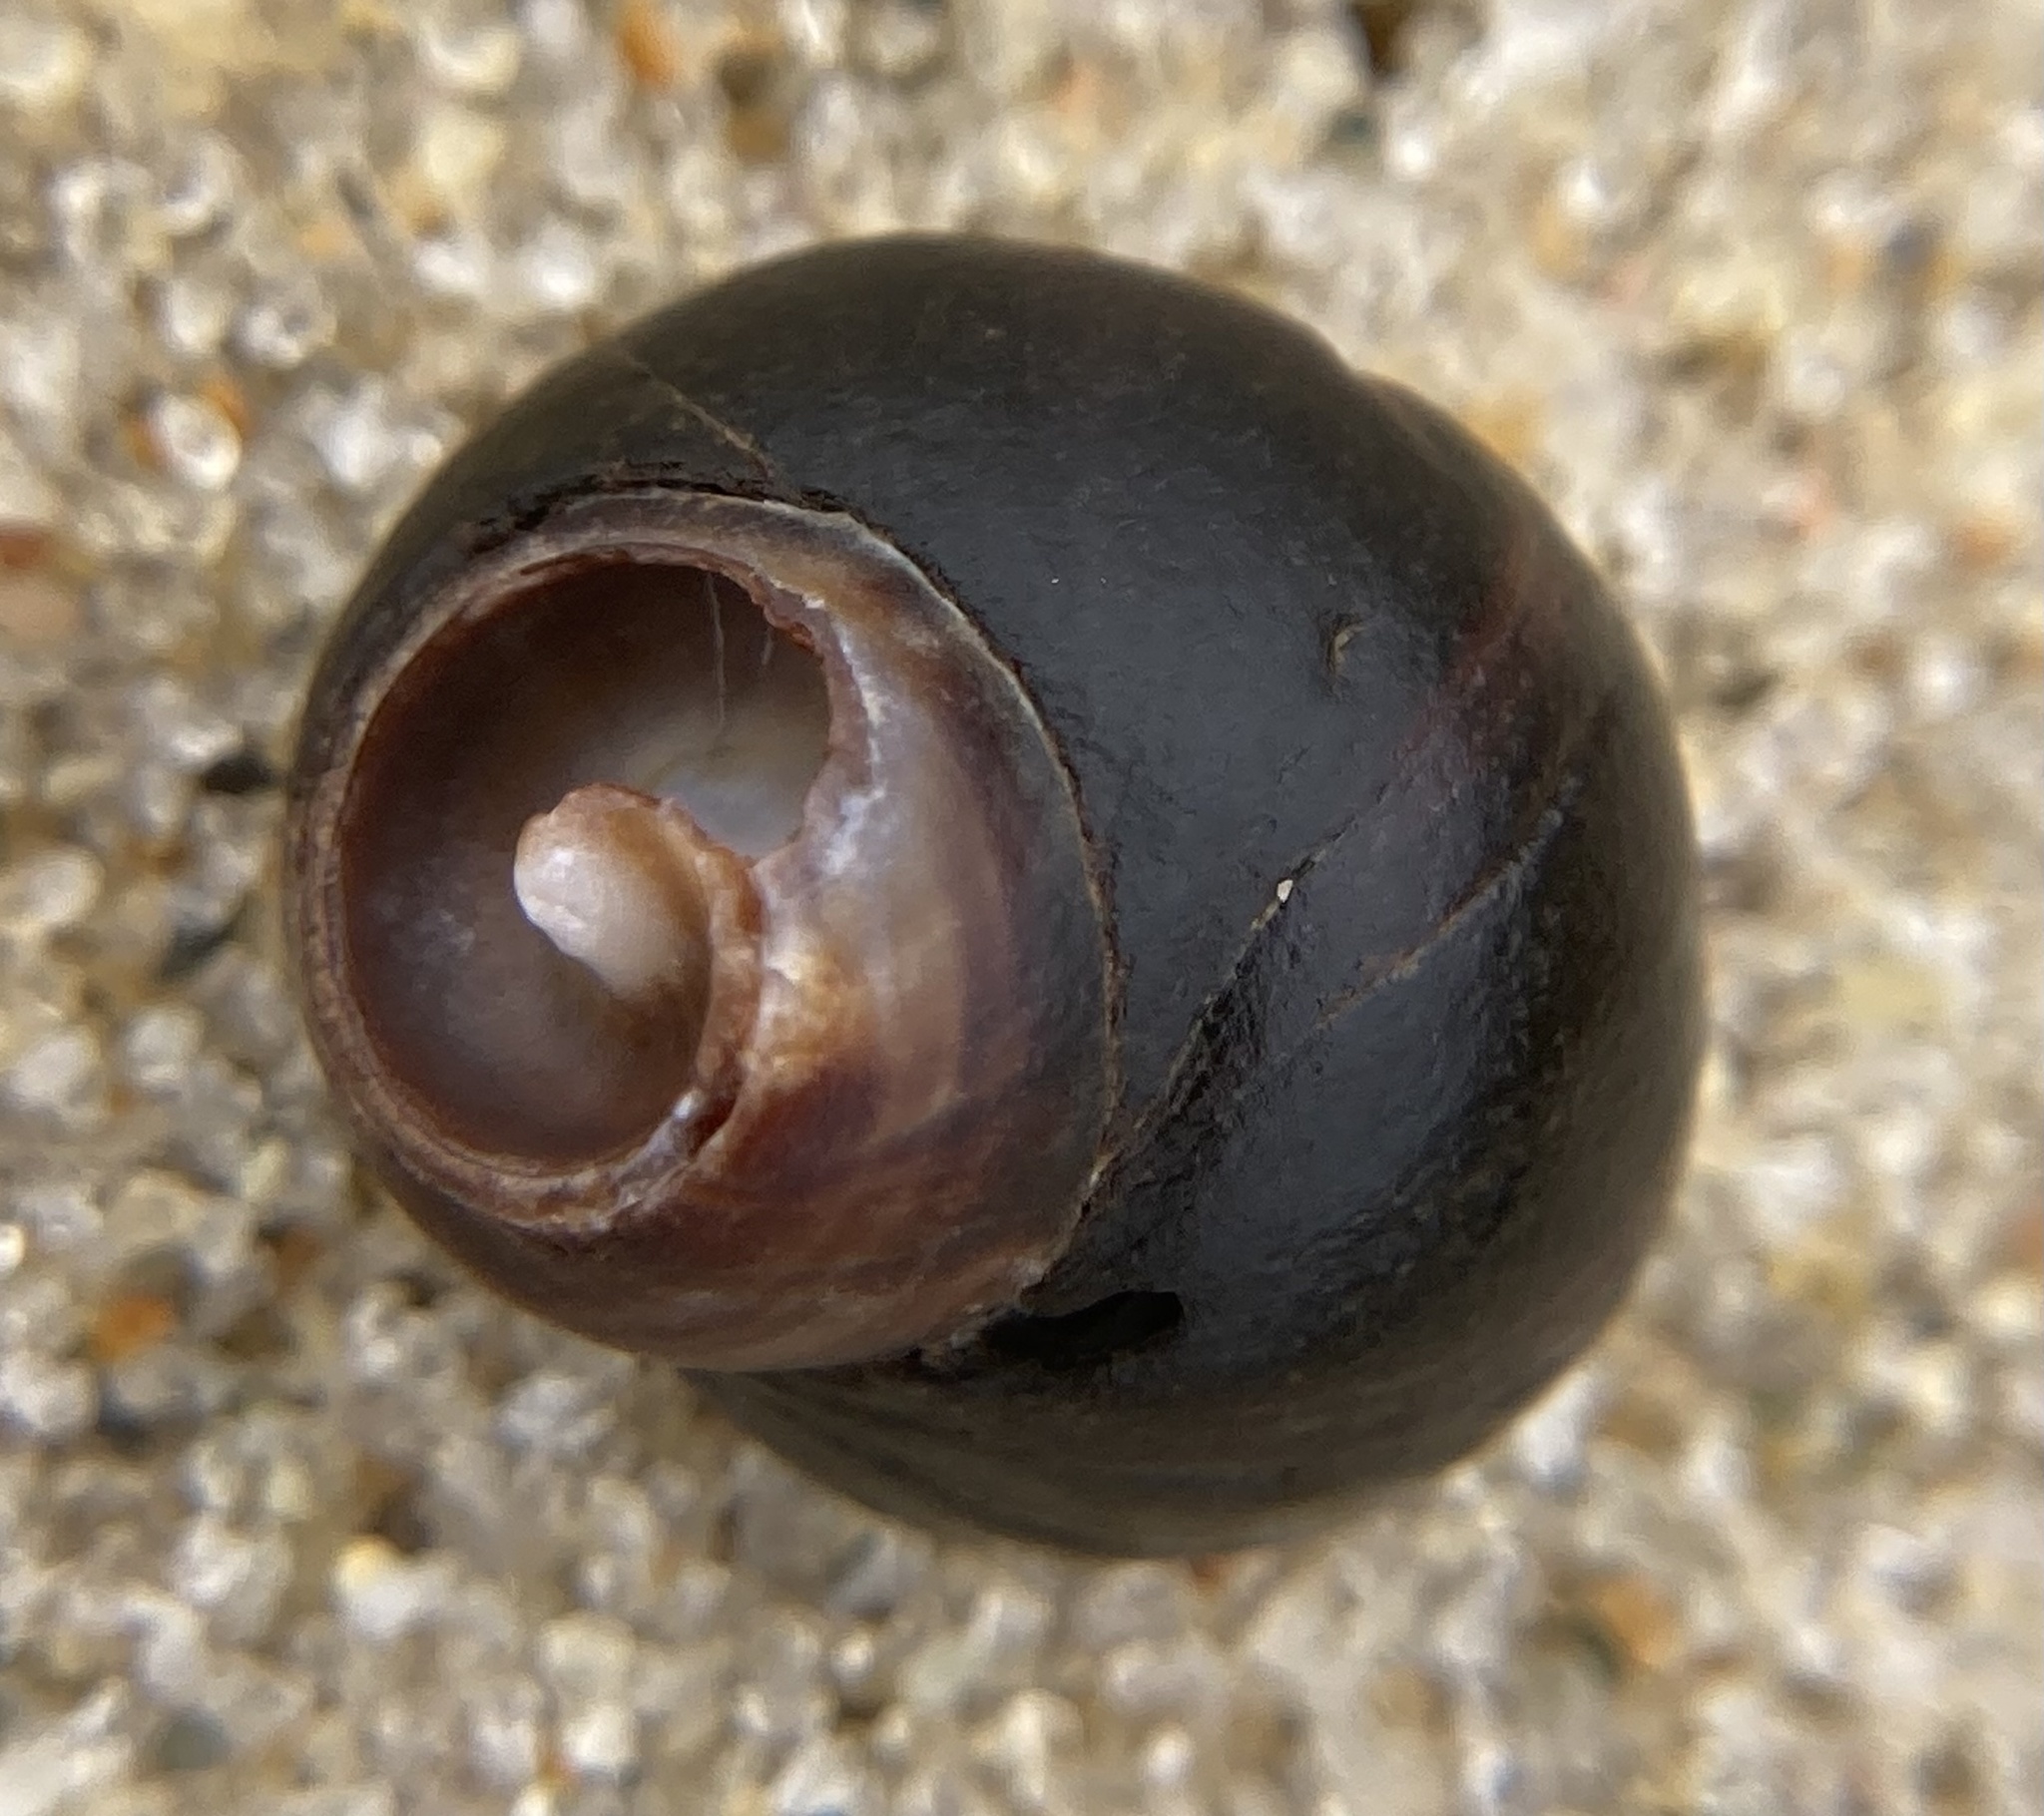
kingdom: Animalia
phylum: Mollusca
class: Gastropoda
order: Littorinimorpha
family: Littorinidae
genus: Littorina
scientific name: Littorina littorea
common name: Common periwinkle
